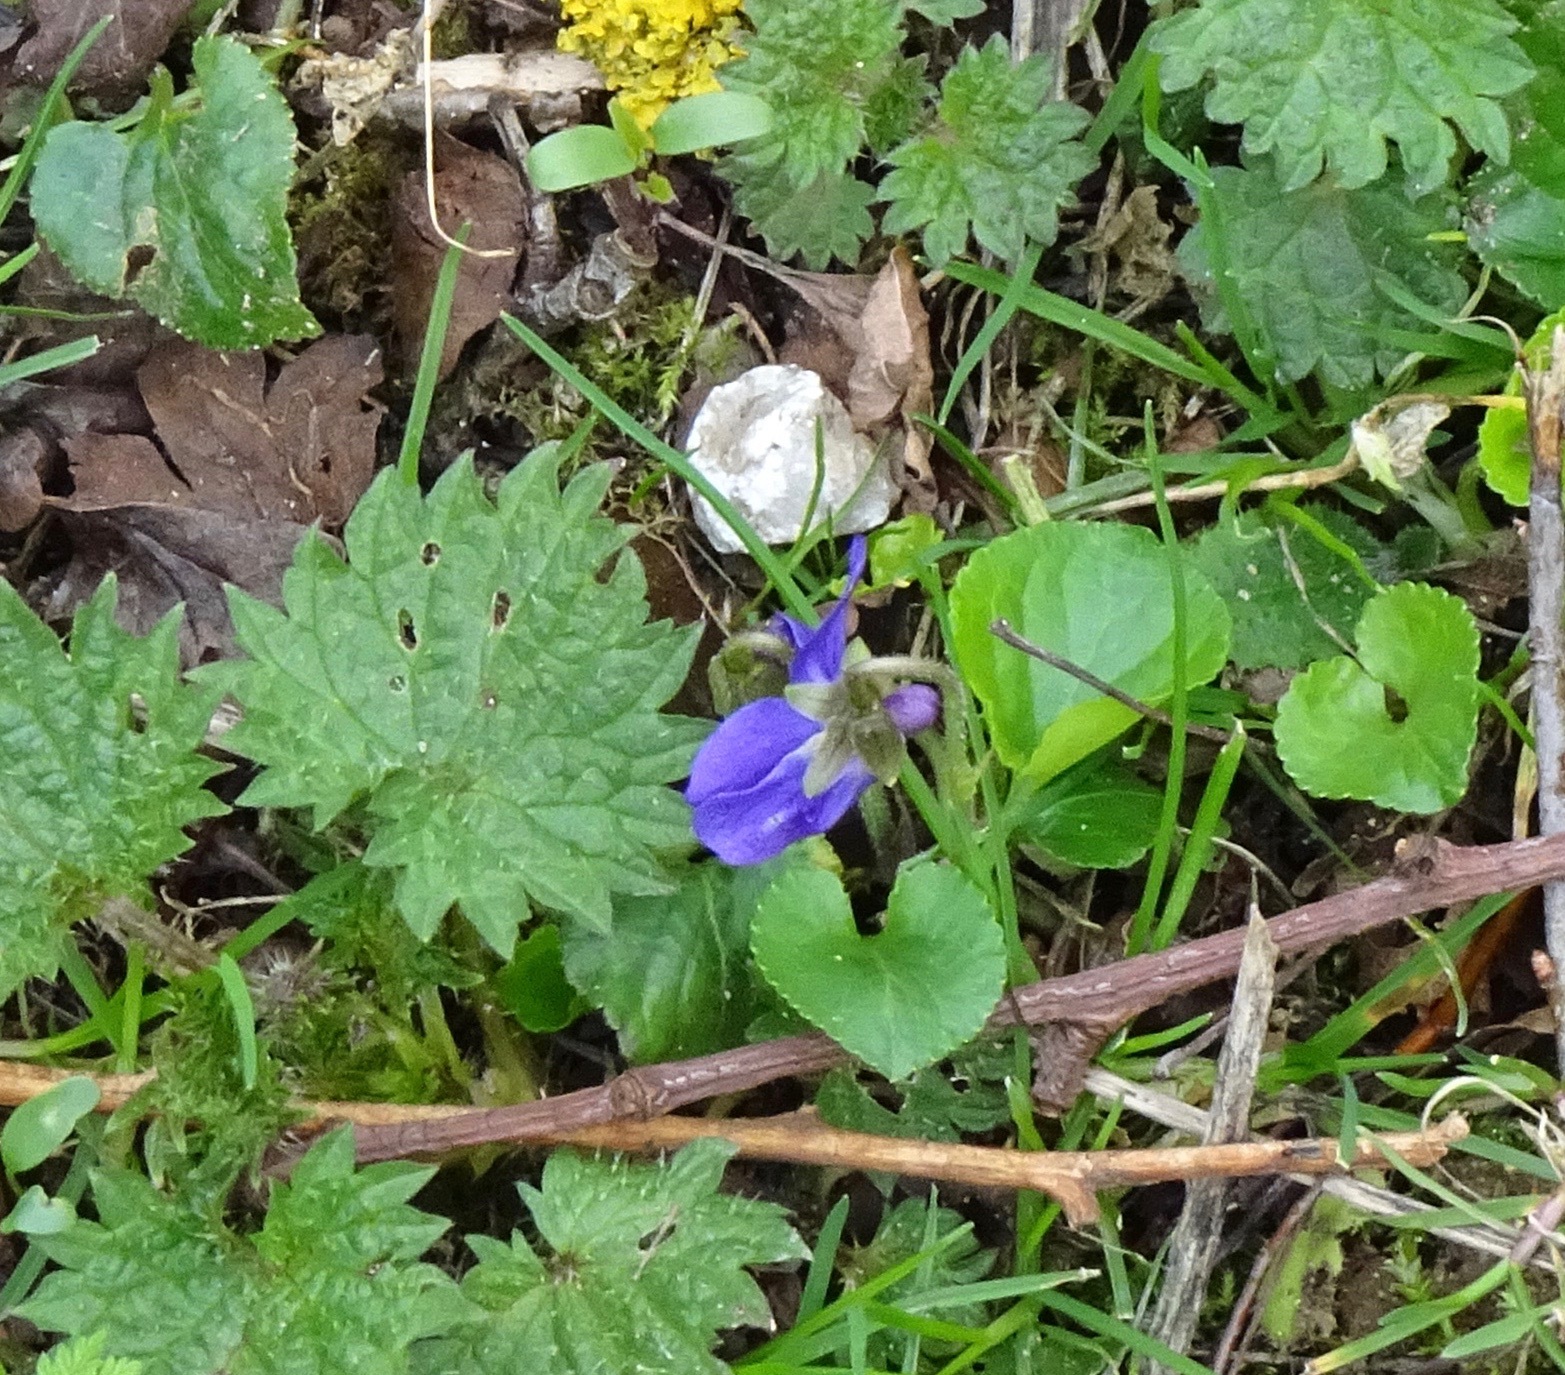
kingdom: Plantae
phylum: Tracheophyta
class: Magnoliopsida
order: Malpighiales
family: Violaceae
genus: Viola
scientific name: Viola odorata
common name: Sweet violet
